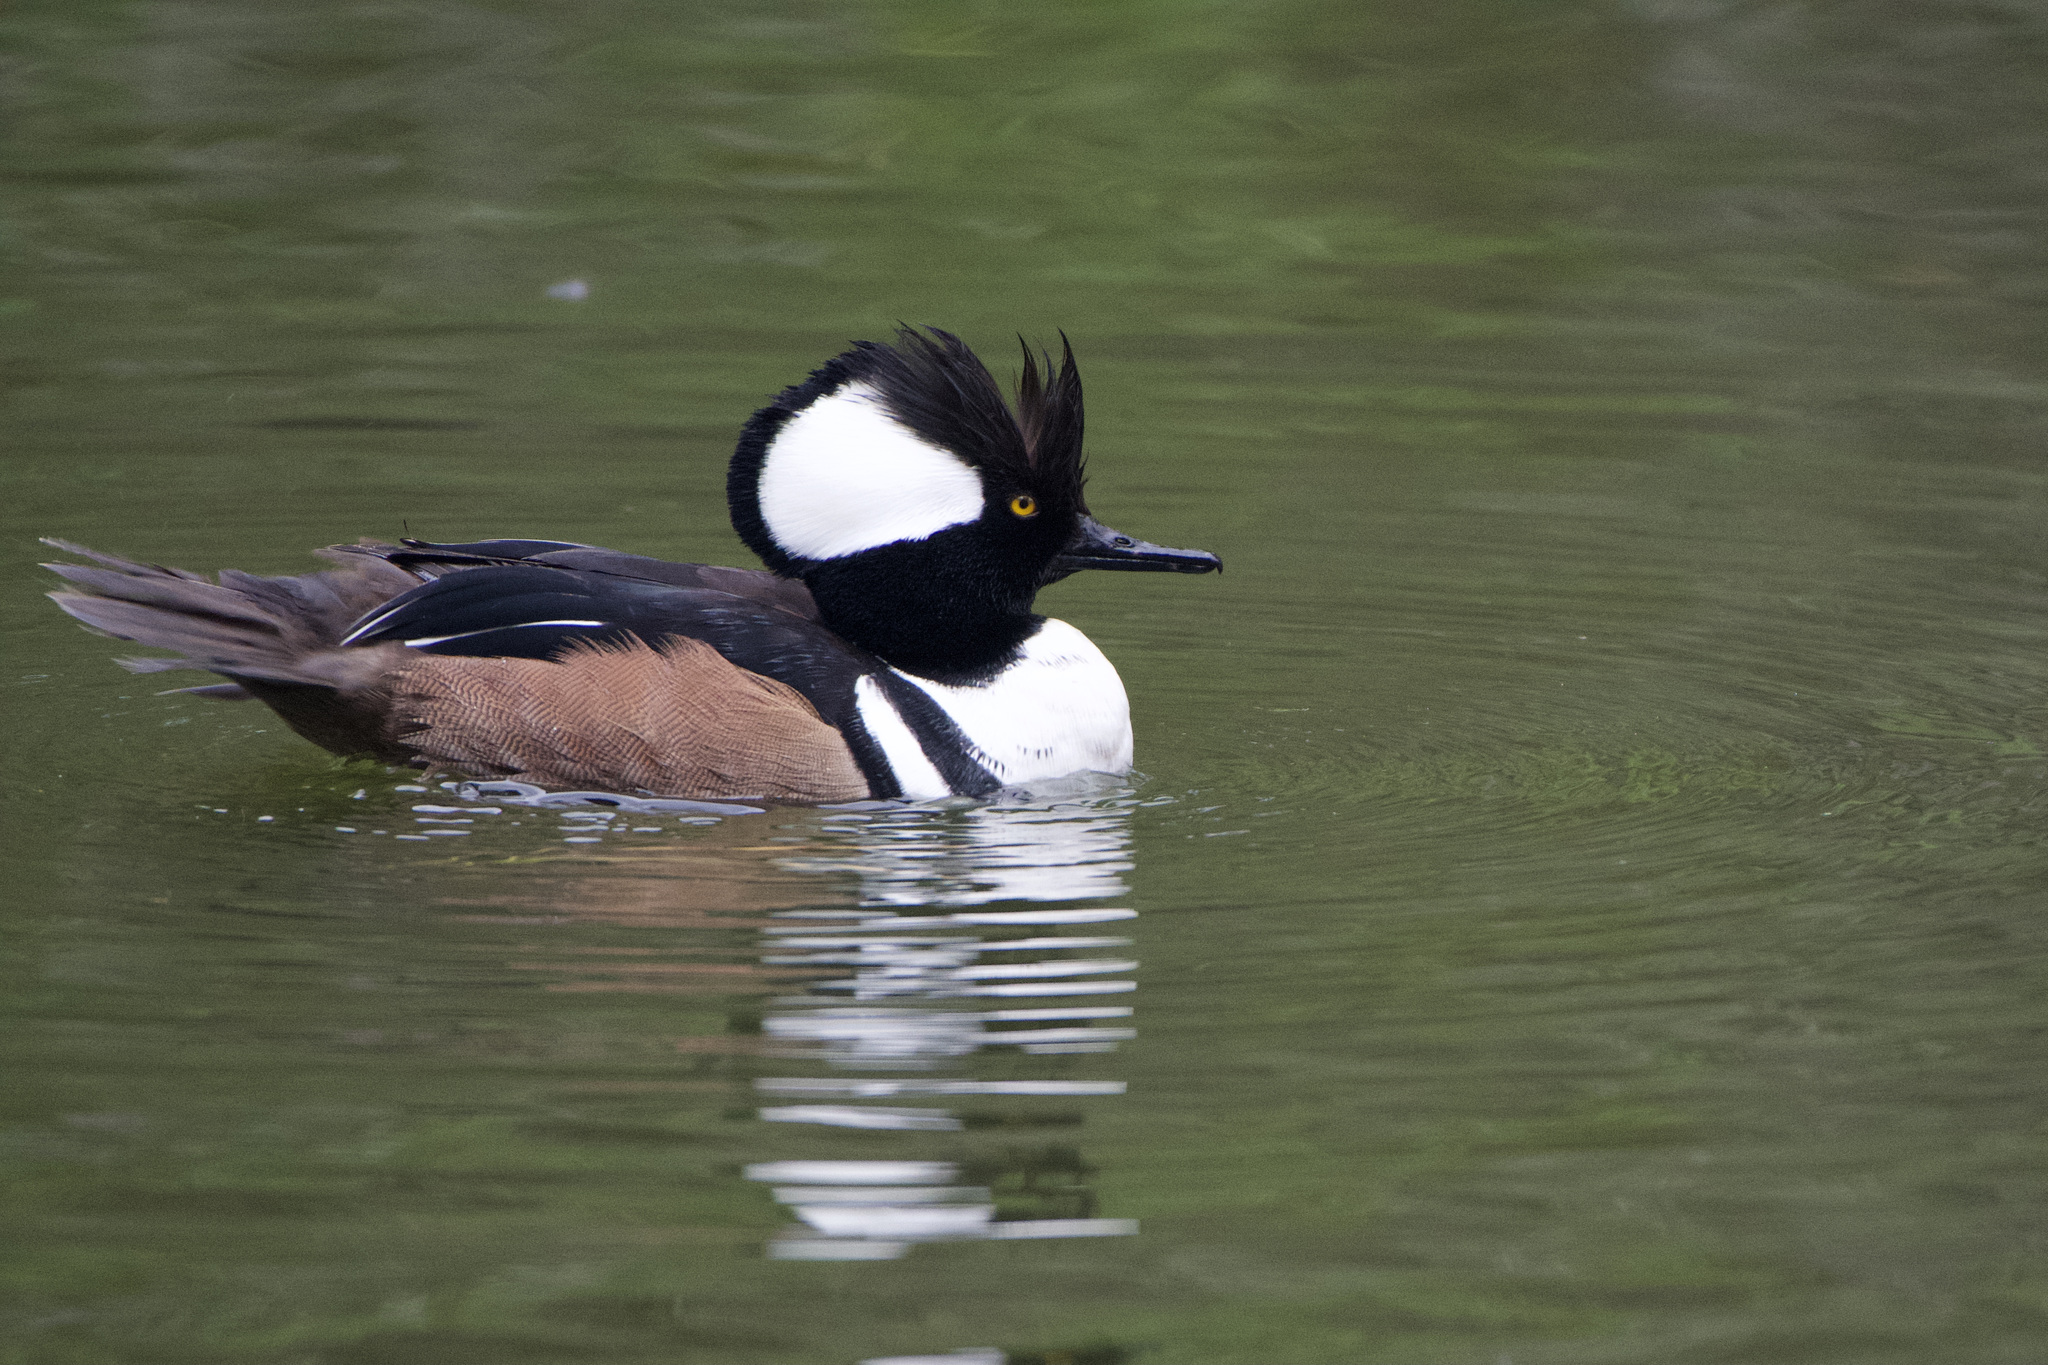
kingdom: Animalia
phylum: Chordata
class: Aves
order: Anseriformes
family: Anatidae
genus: Lophodytes
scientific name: Lophodytes cucullatus
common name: Hooded merganser
